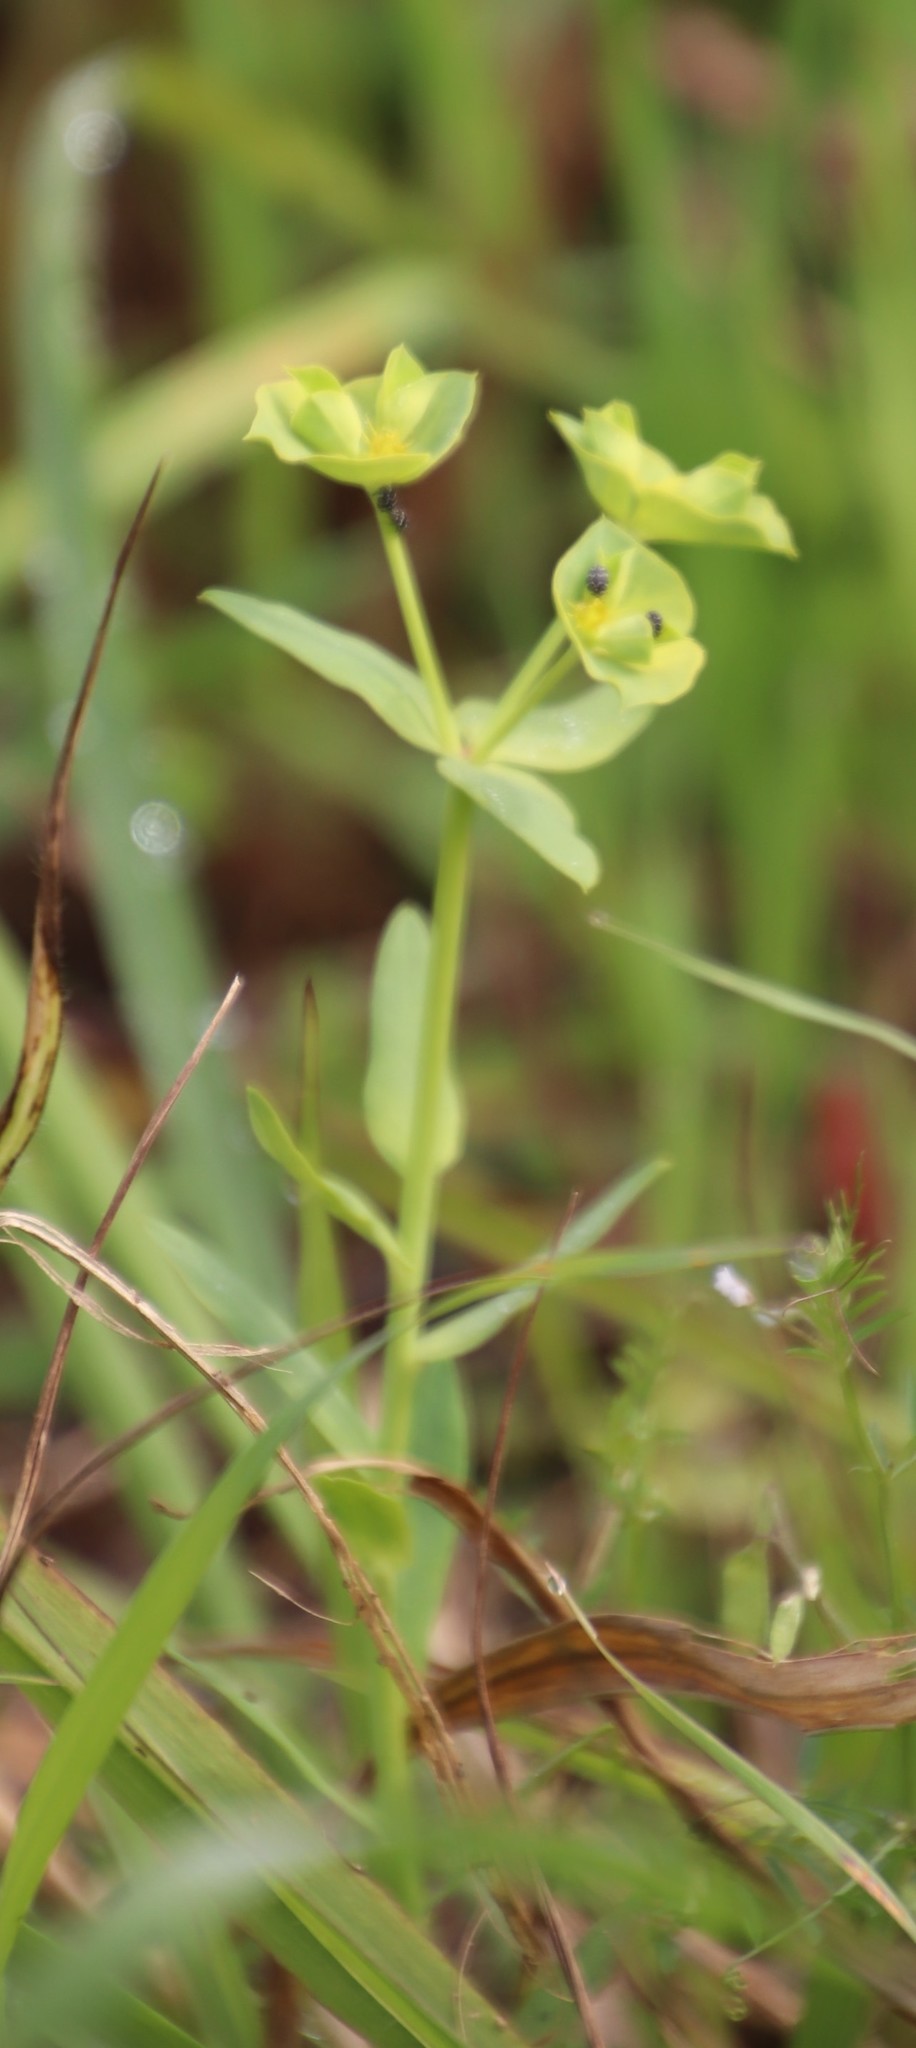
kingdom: Plantae
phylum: Tracheophyta
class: Magnoliopsida
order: Malpighiales
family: Euphorbiaceae
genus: Euphorbia
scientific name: Euphorbia terracina
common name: Geraldton carnation weed
